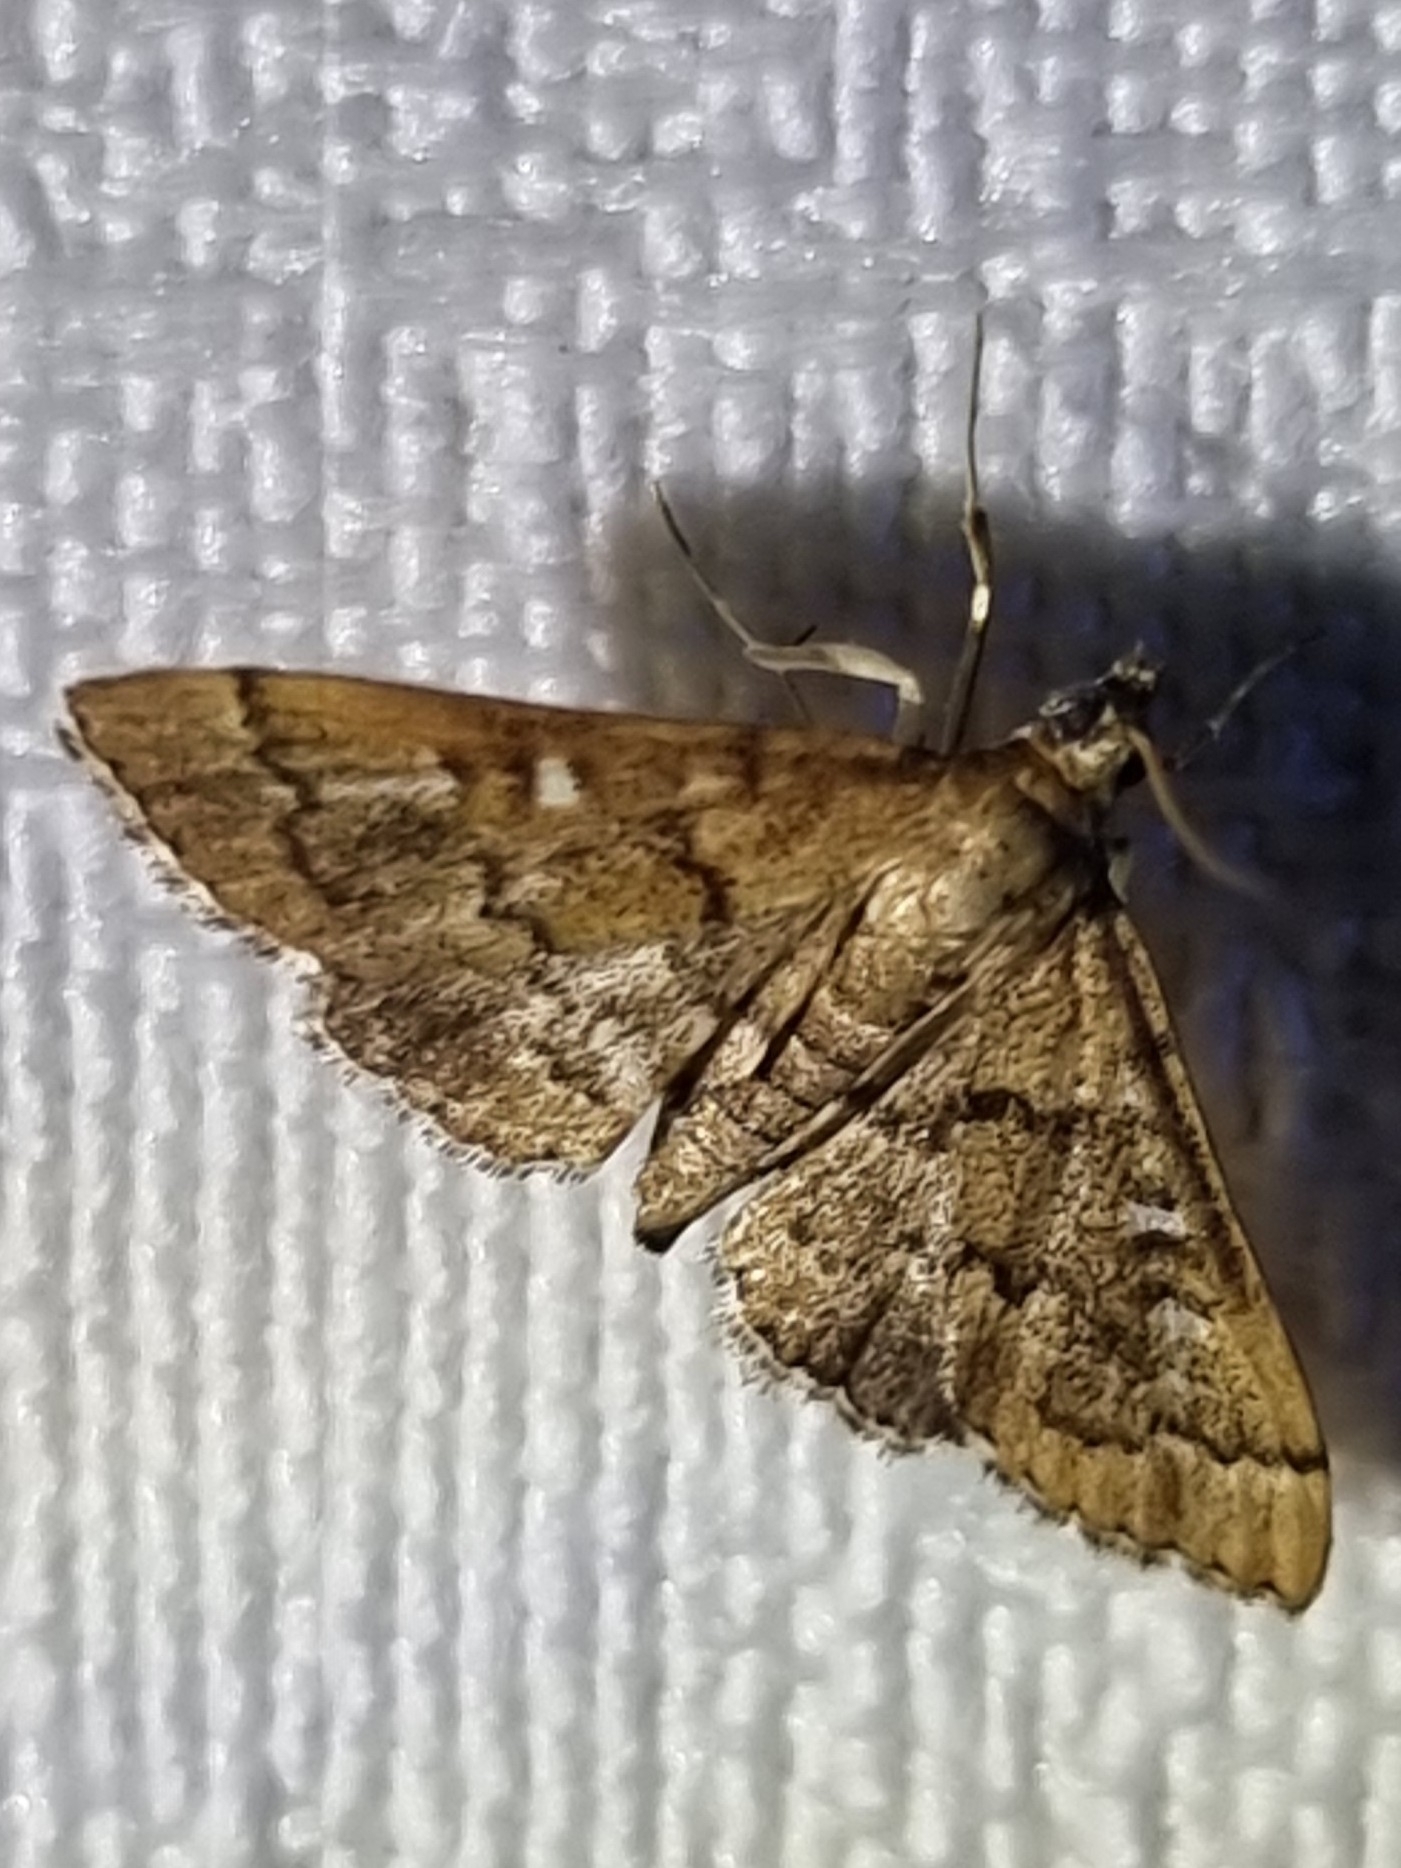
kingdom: Animalia
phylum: Arthropoda
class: Insecta
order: Lepidoptera
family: Crambidae
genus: Nacoleia
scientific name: Nacoleia rhoeoalis
